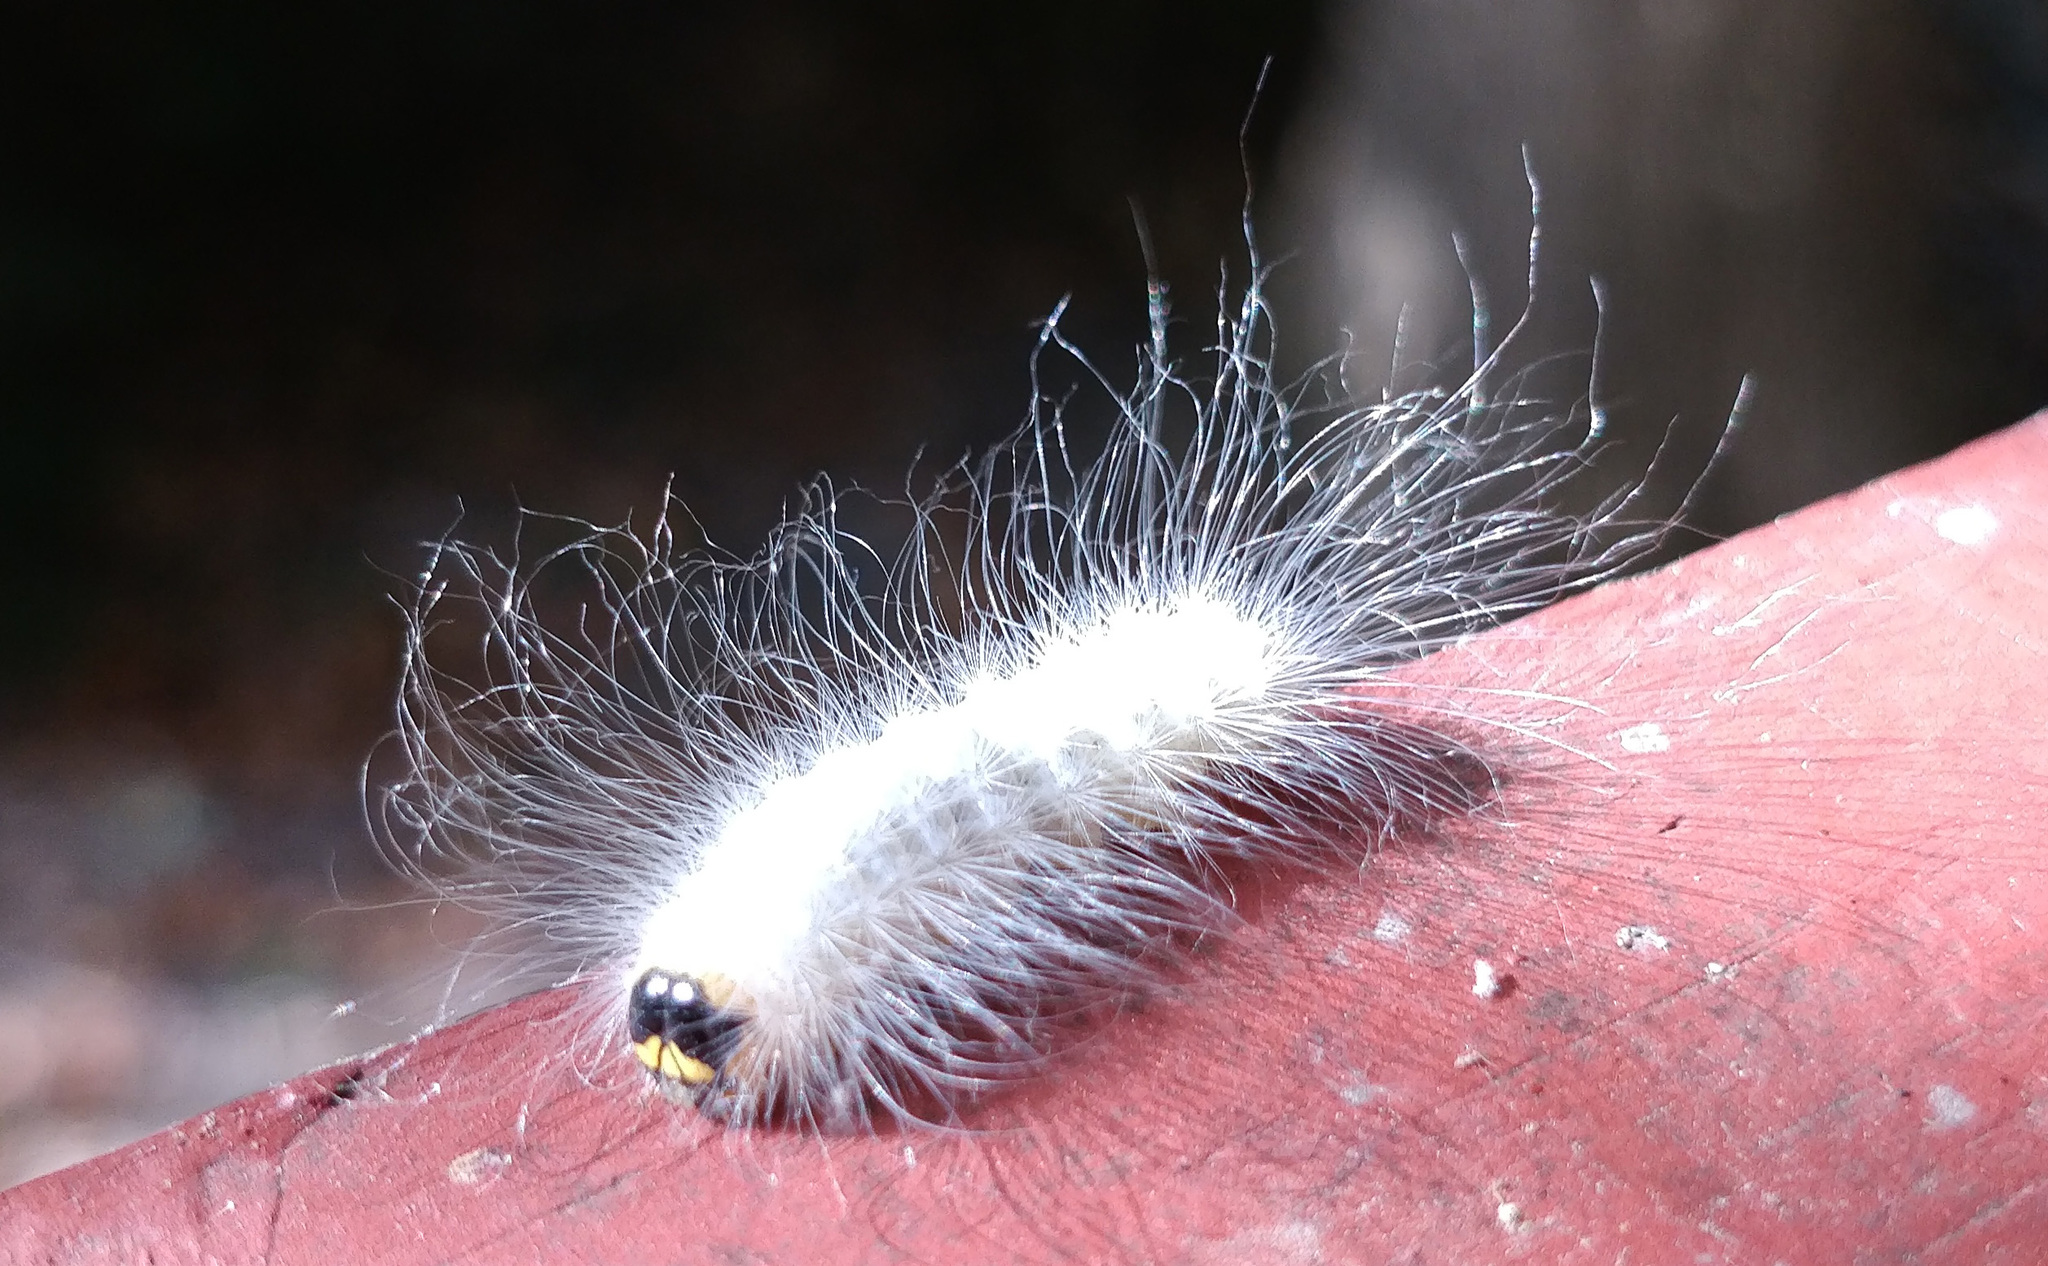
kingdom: Animalia
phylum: Arthropoda
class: Insecta
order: Lepidoptera
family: Noctuidae
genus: Charadra
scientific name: Charadra deridens
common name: Marbled tuffet
